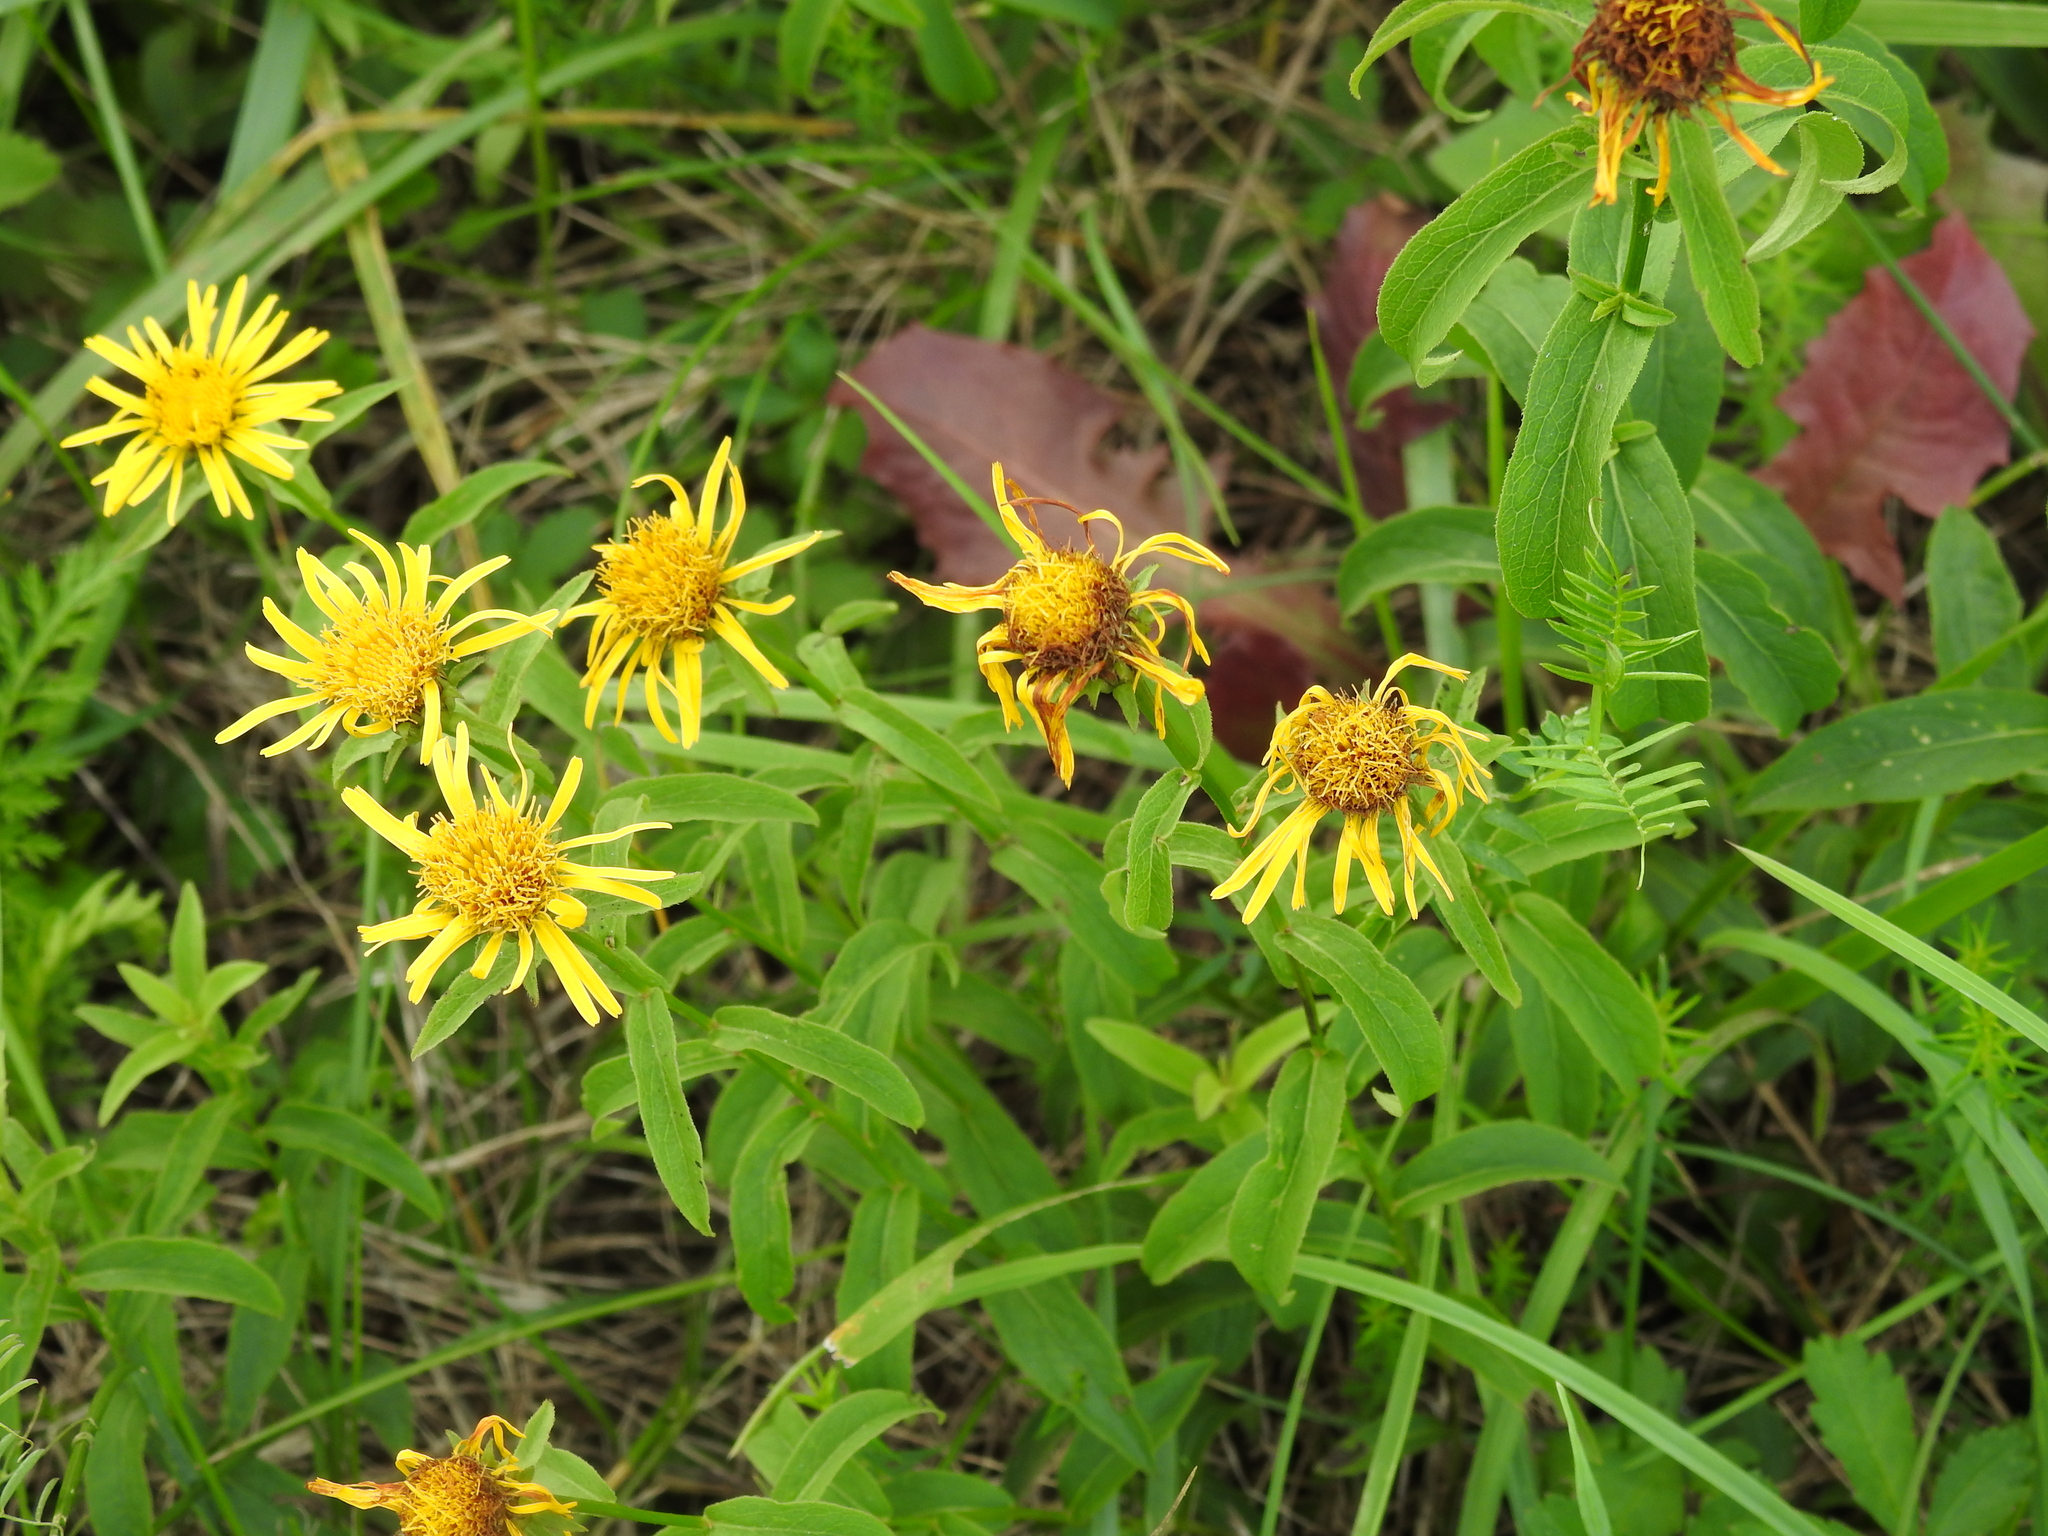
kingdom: Plantae
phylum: Tracheophyta
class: Magnoliopsida
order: Asterales
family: Asteraceae
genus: Pentanema
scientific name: Pentanema salicinum
